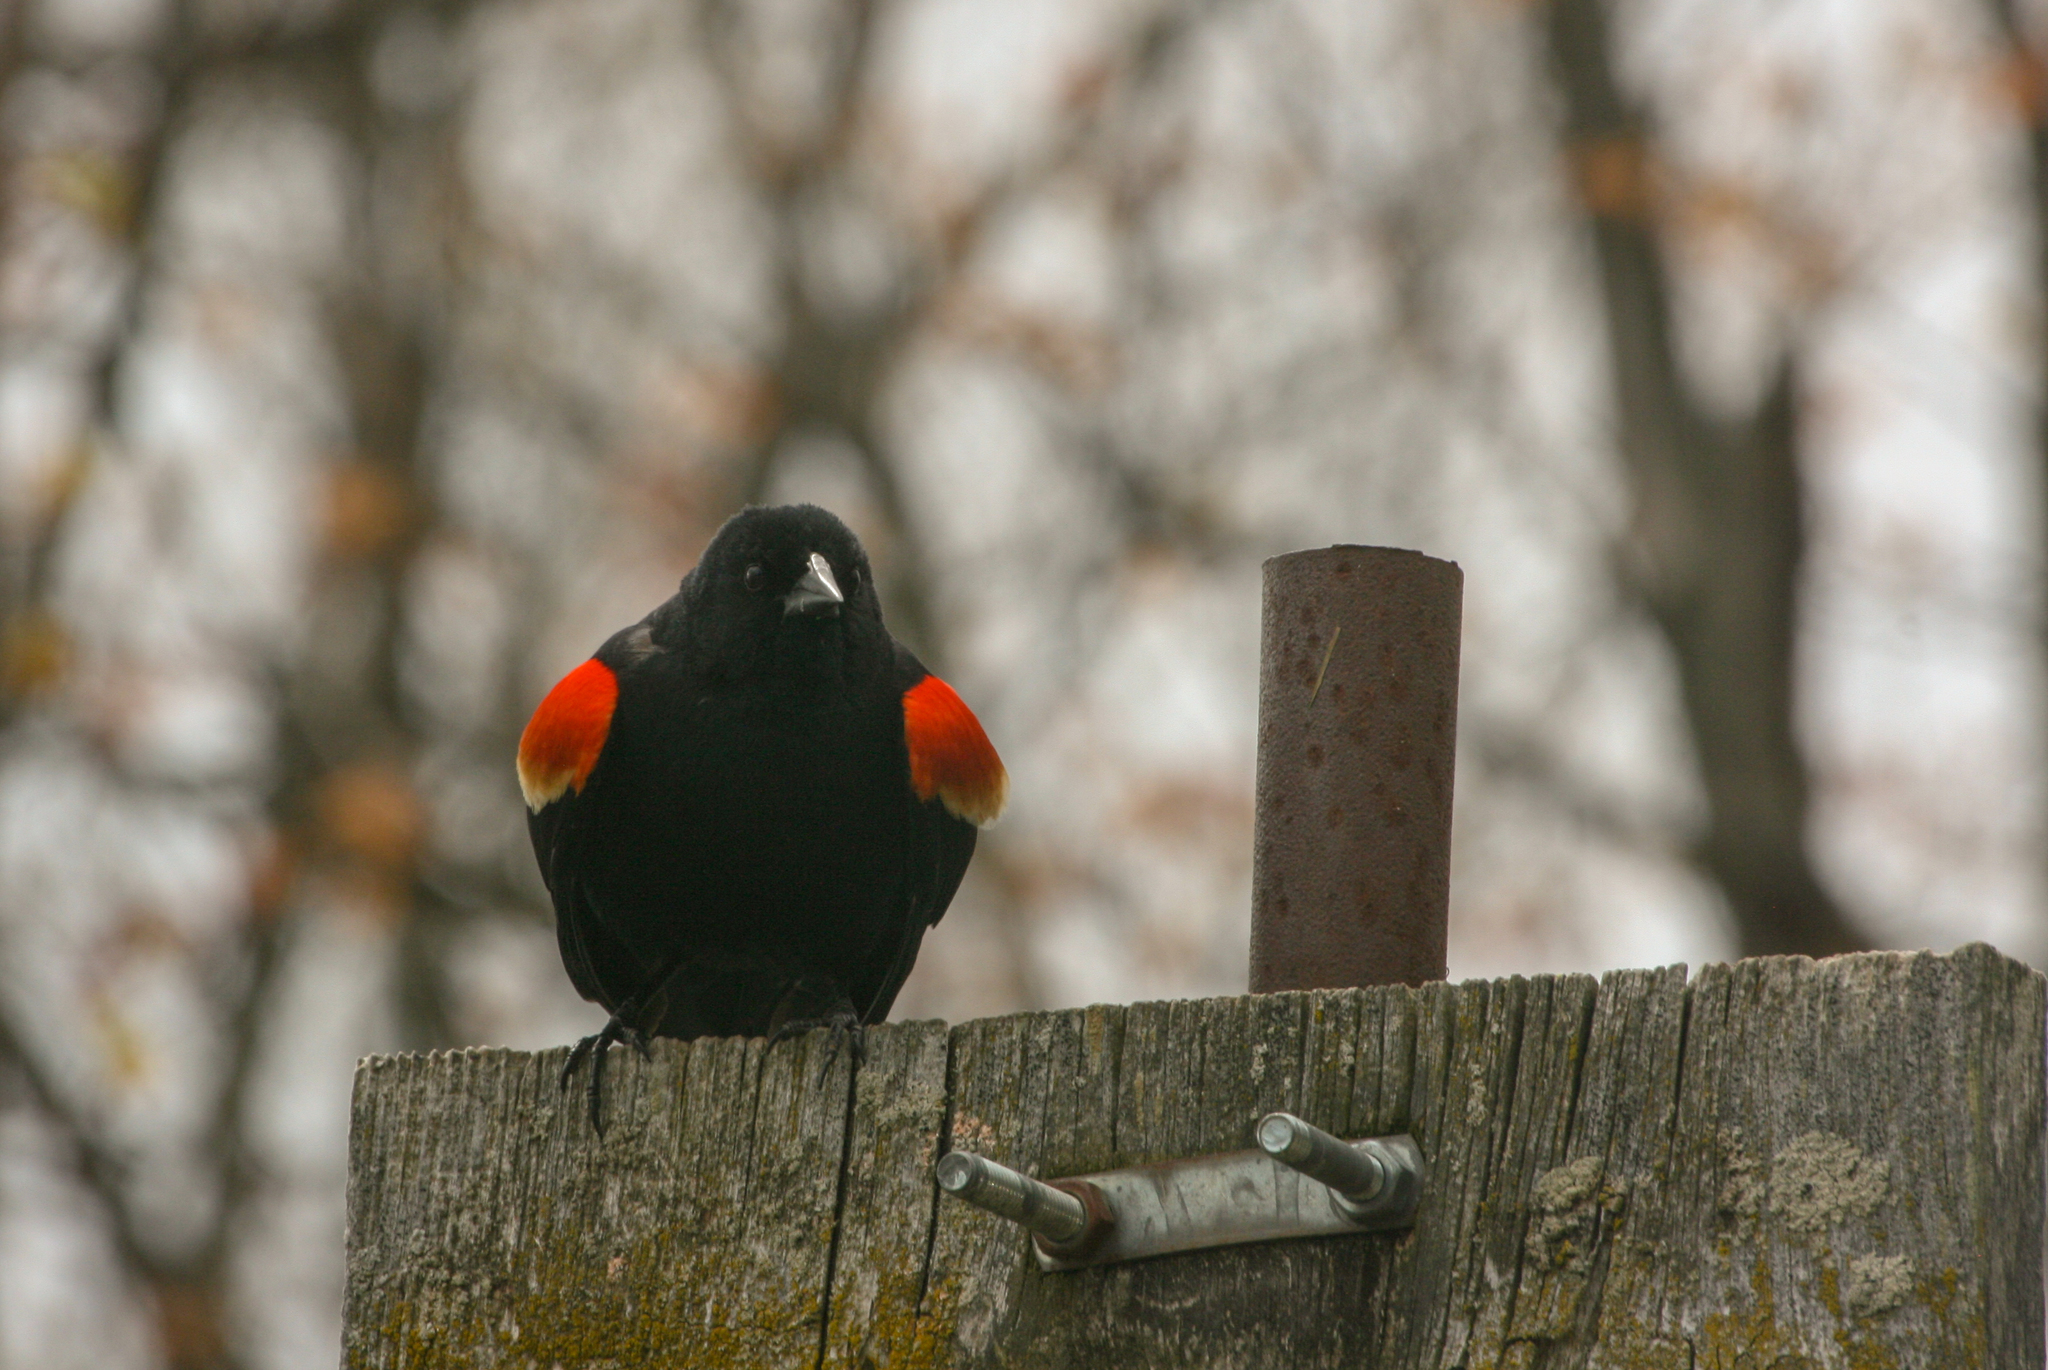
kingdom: Animalia
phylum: Chordata
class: Aves
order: Passeriformes
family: Icteridae
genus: Agelaius
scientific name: Agelaius phoeniceus
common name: Red-winged blackbird
